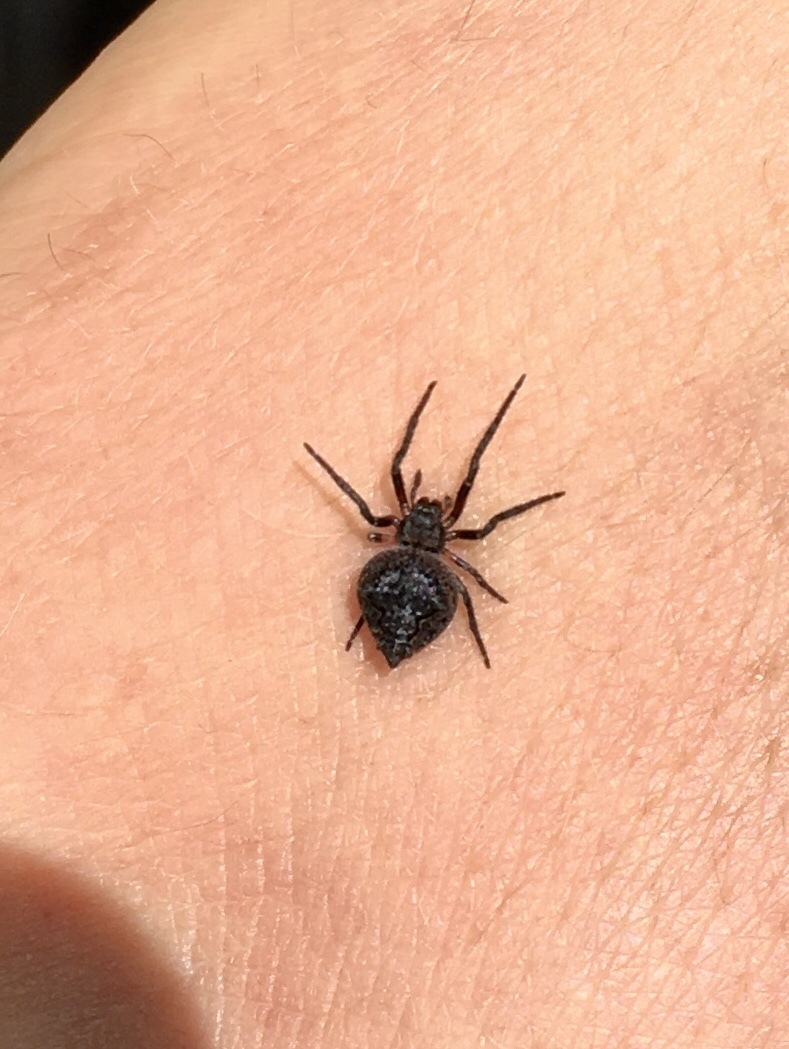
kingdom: Animalia
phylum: Arthropoda
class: Arachnida
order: Araneae
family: Araneidae
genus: Eriophora
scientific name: Eriophora pustulosa
